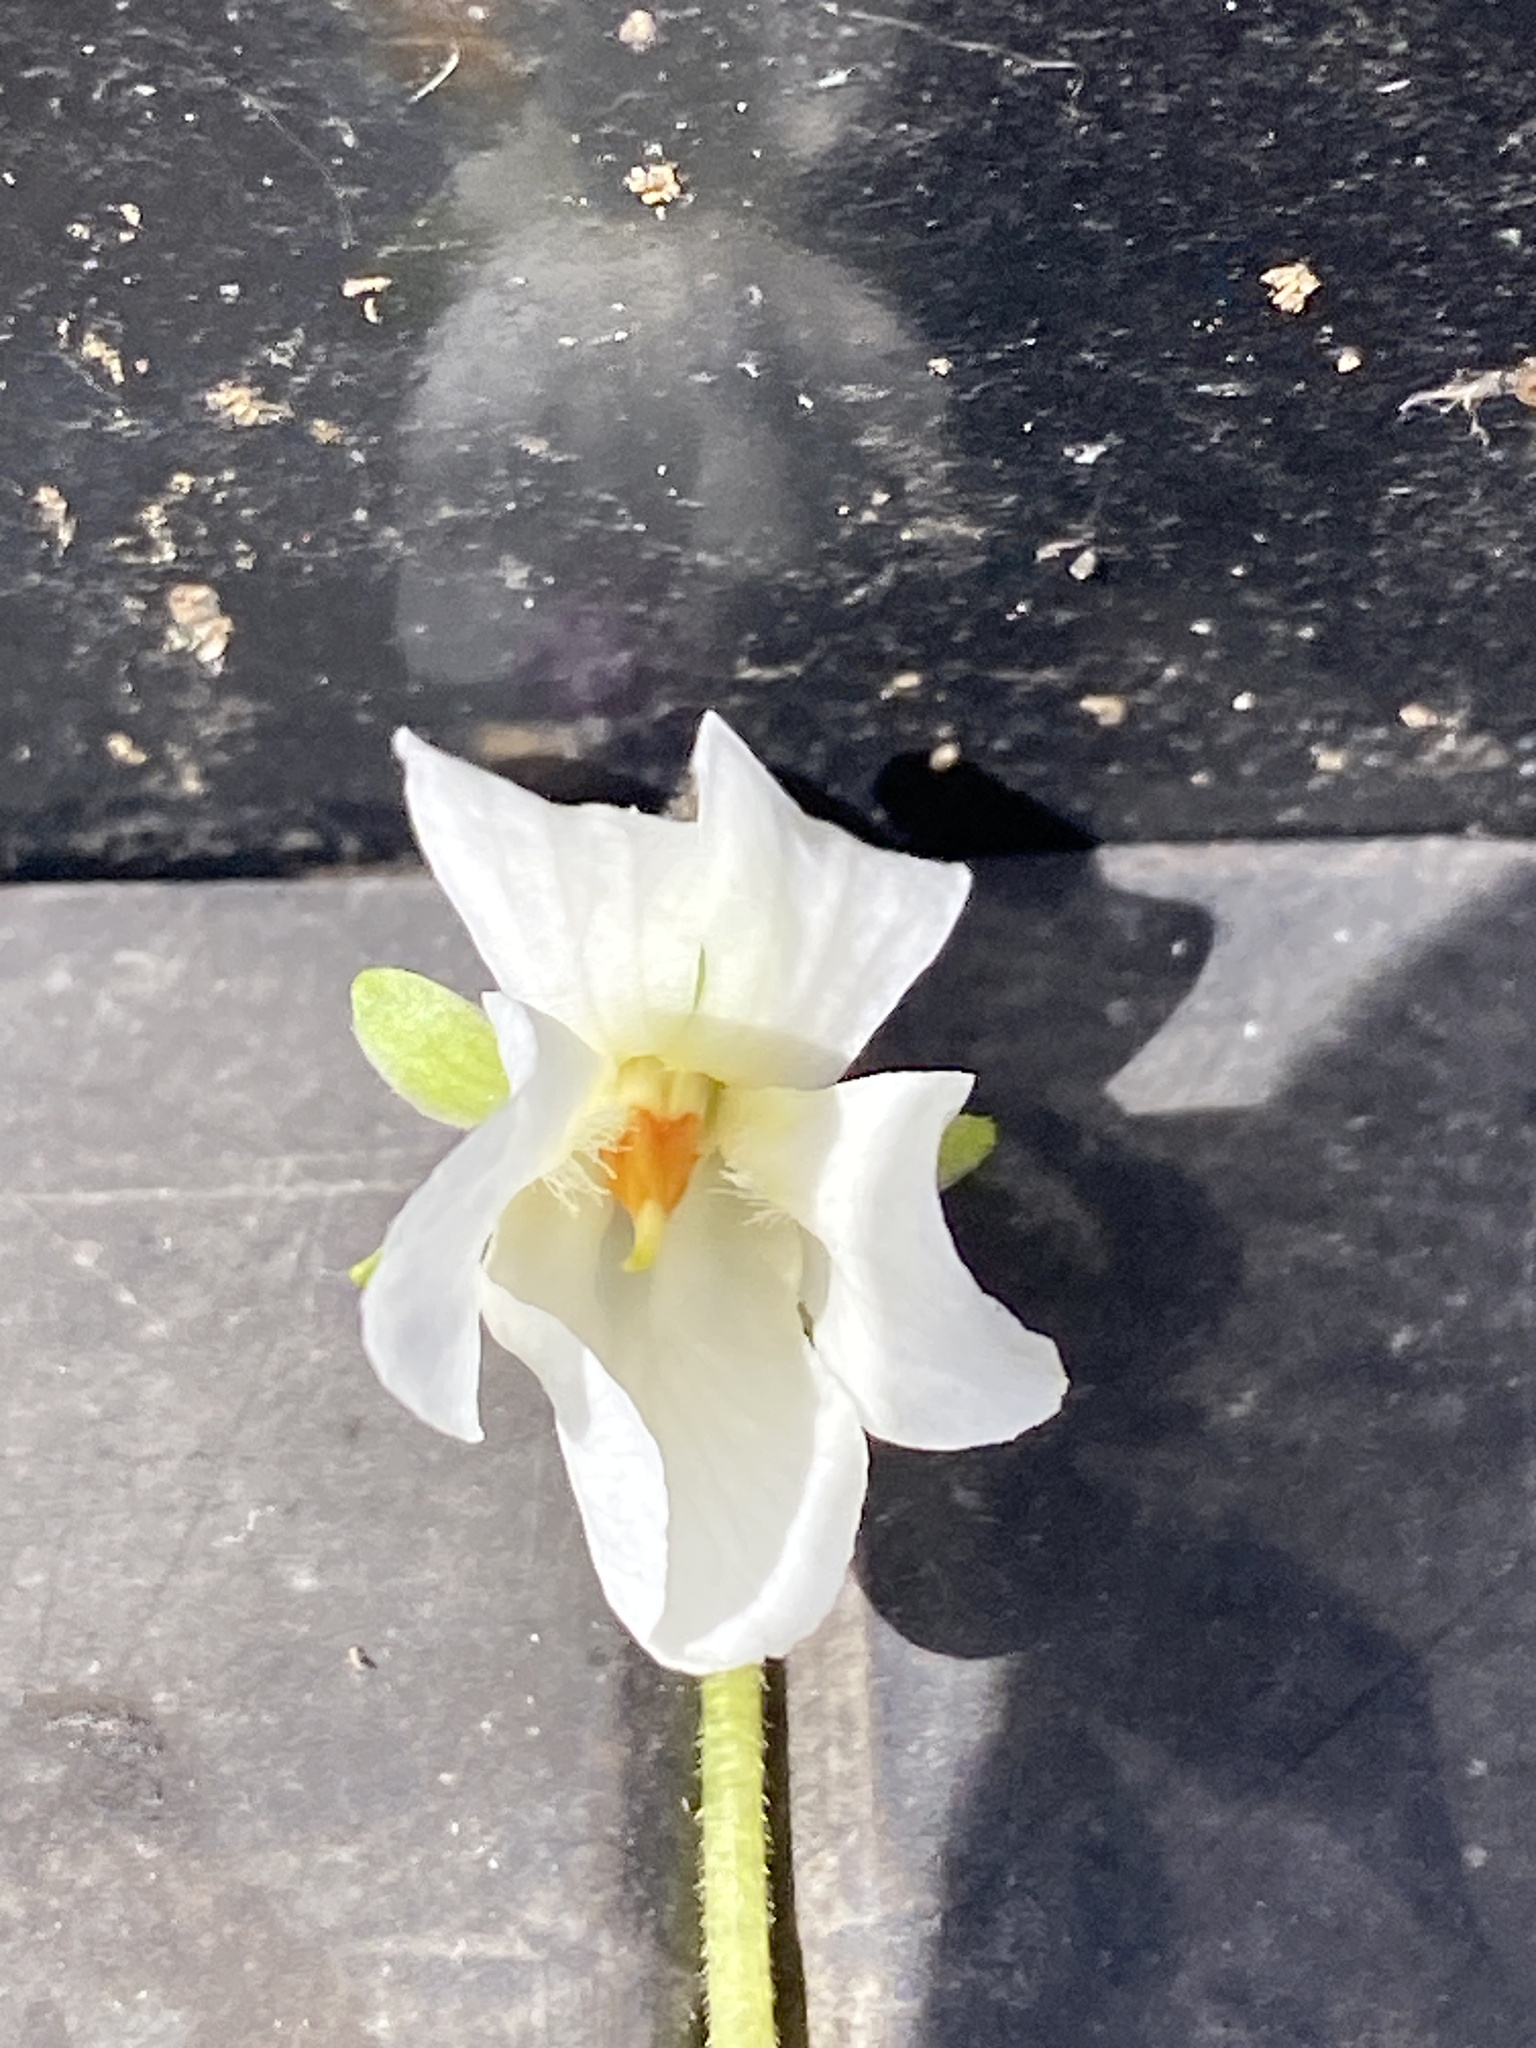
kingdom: Plantae
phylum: Tracheophyta
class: Magnoliopsida
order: Malpighiales
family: Violaceae
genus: Viola
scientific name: Viola odorata
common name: Sweet violet
